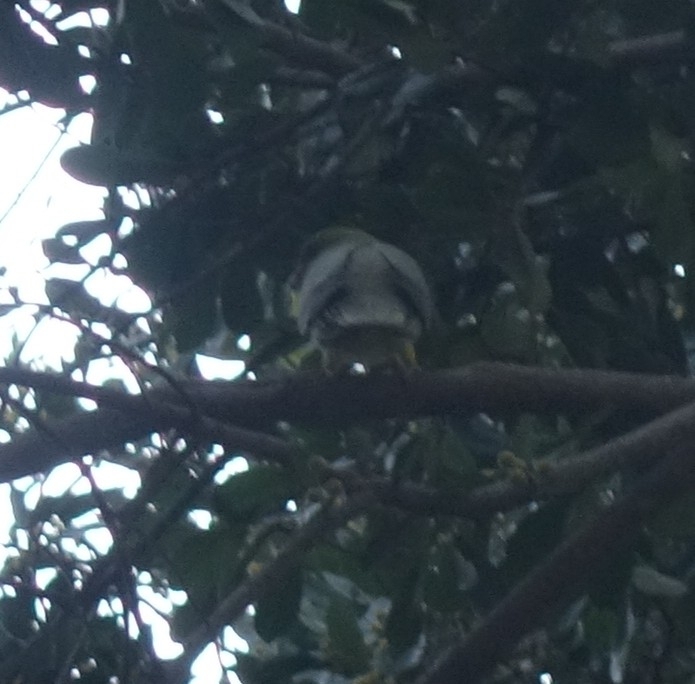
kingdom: Animalia
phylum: Chordata
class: Aves
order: Columbiformes
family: Columbidae
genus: Treron
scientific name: Treron calvus
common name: African green pigeon
